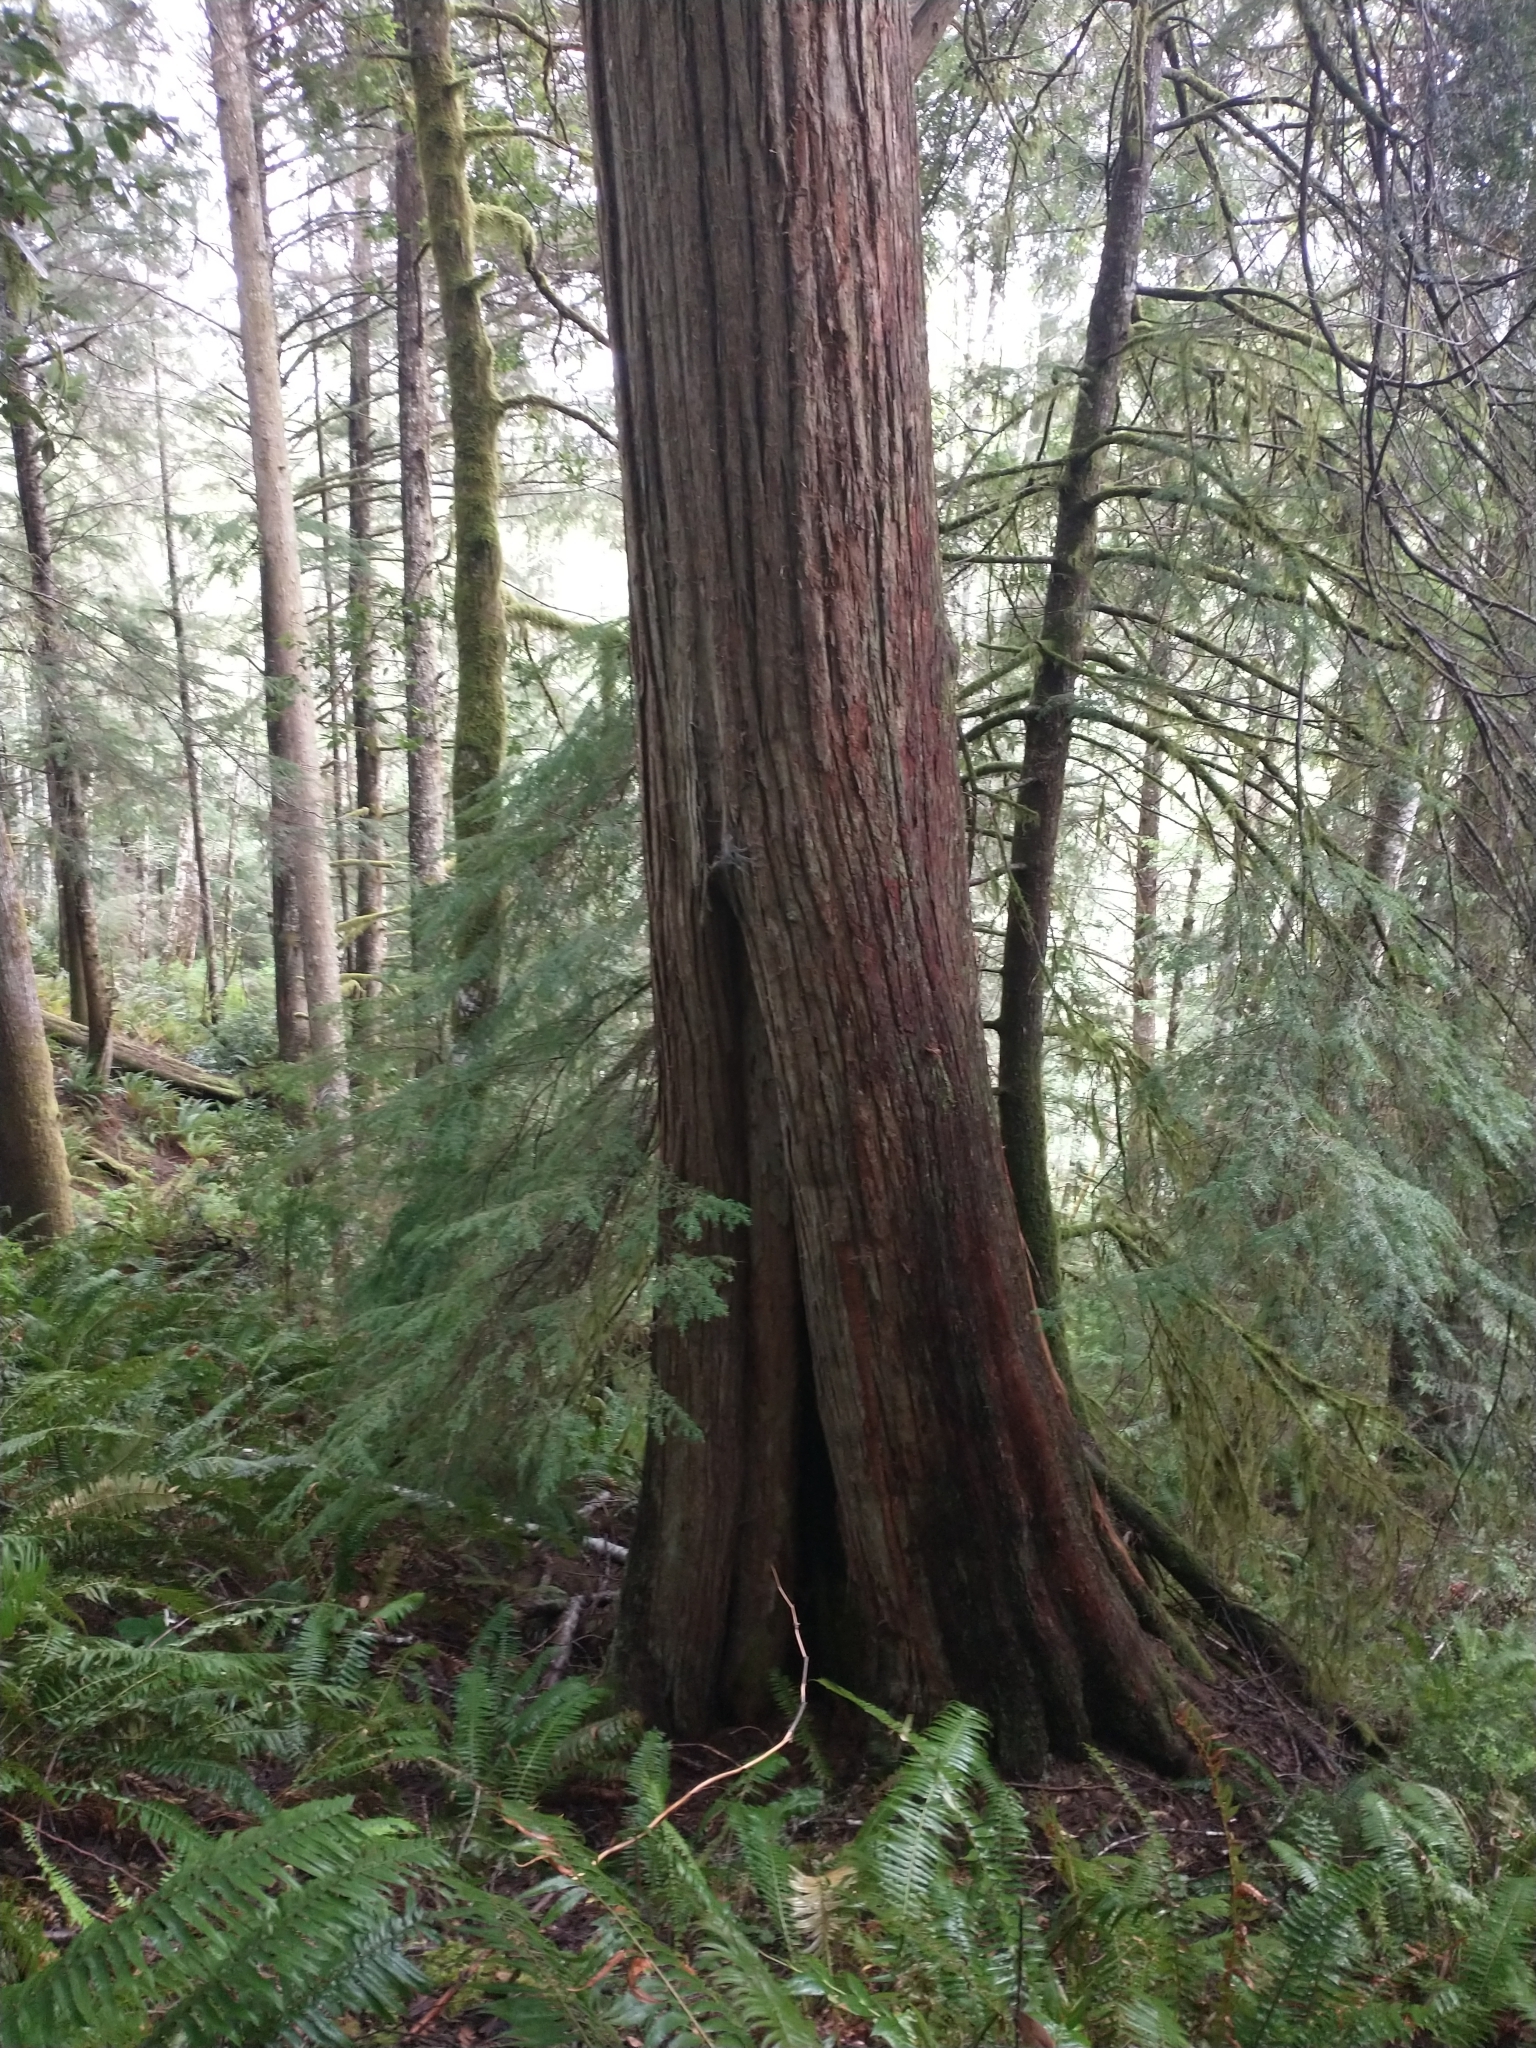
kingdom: Plantae
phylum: Tracheophyta
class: Pinopsida
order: Pinales
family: Cupressaceae
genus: Thuja
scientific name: Thuja plicata
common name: Western red-cedar
